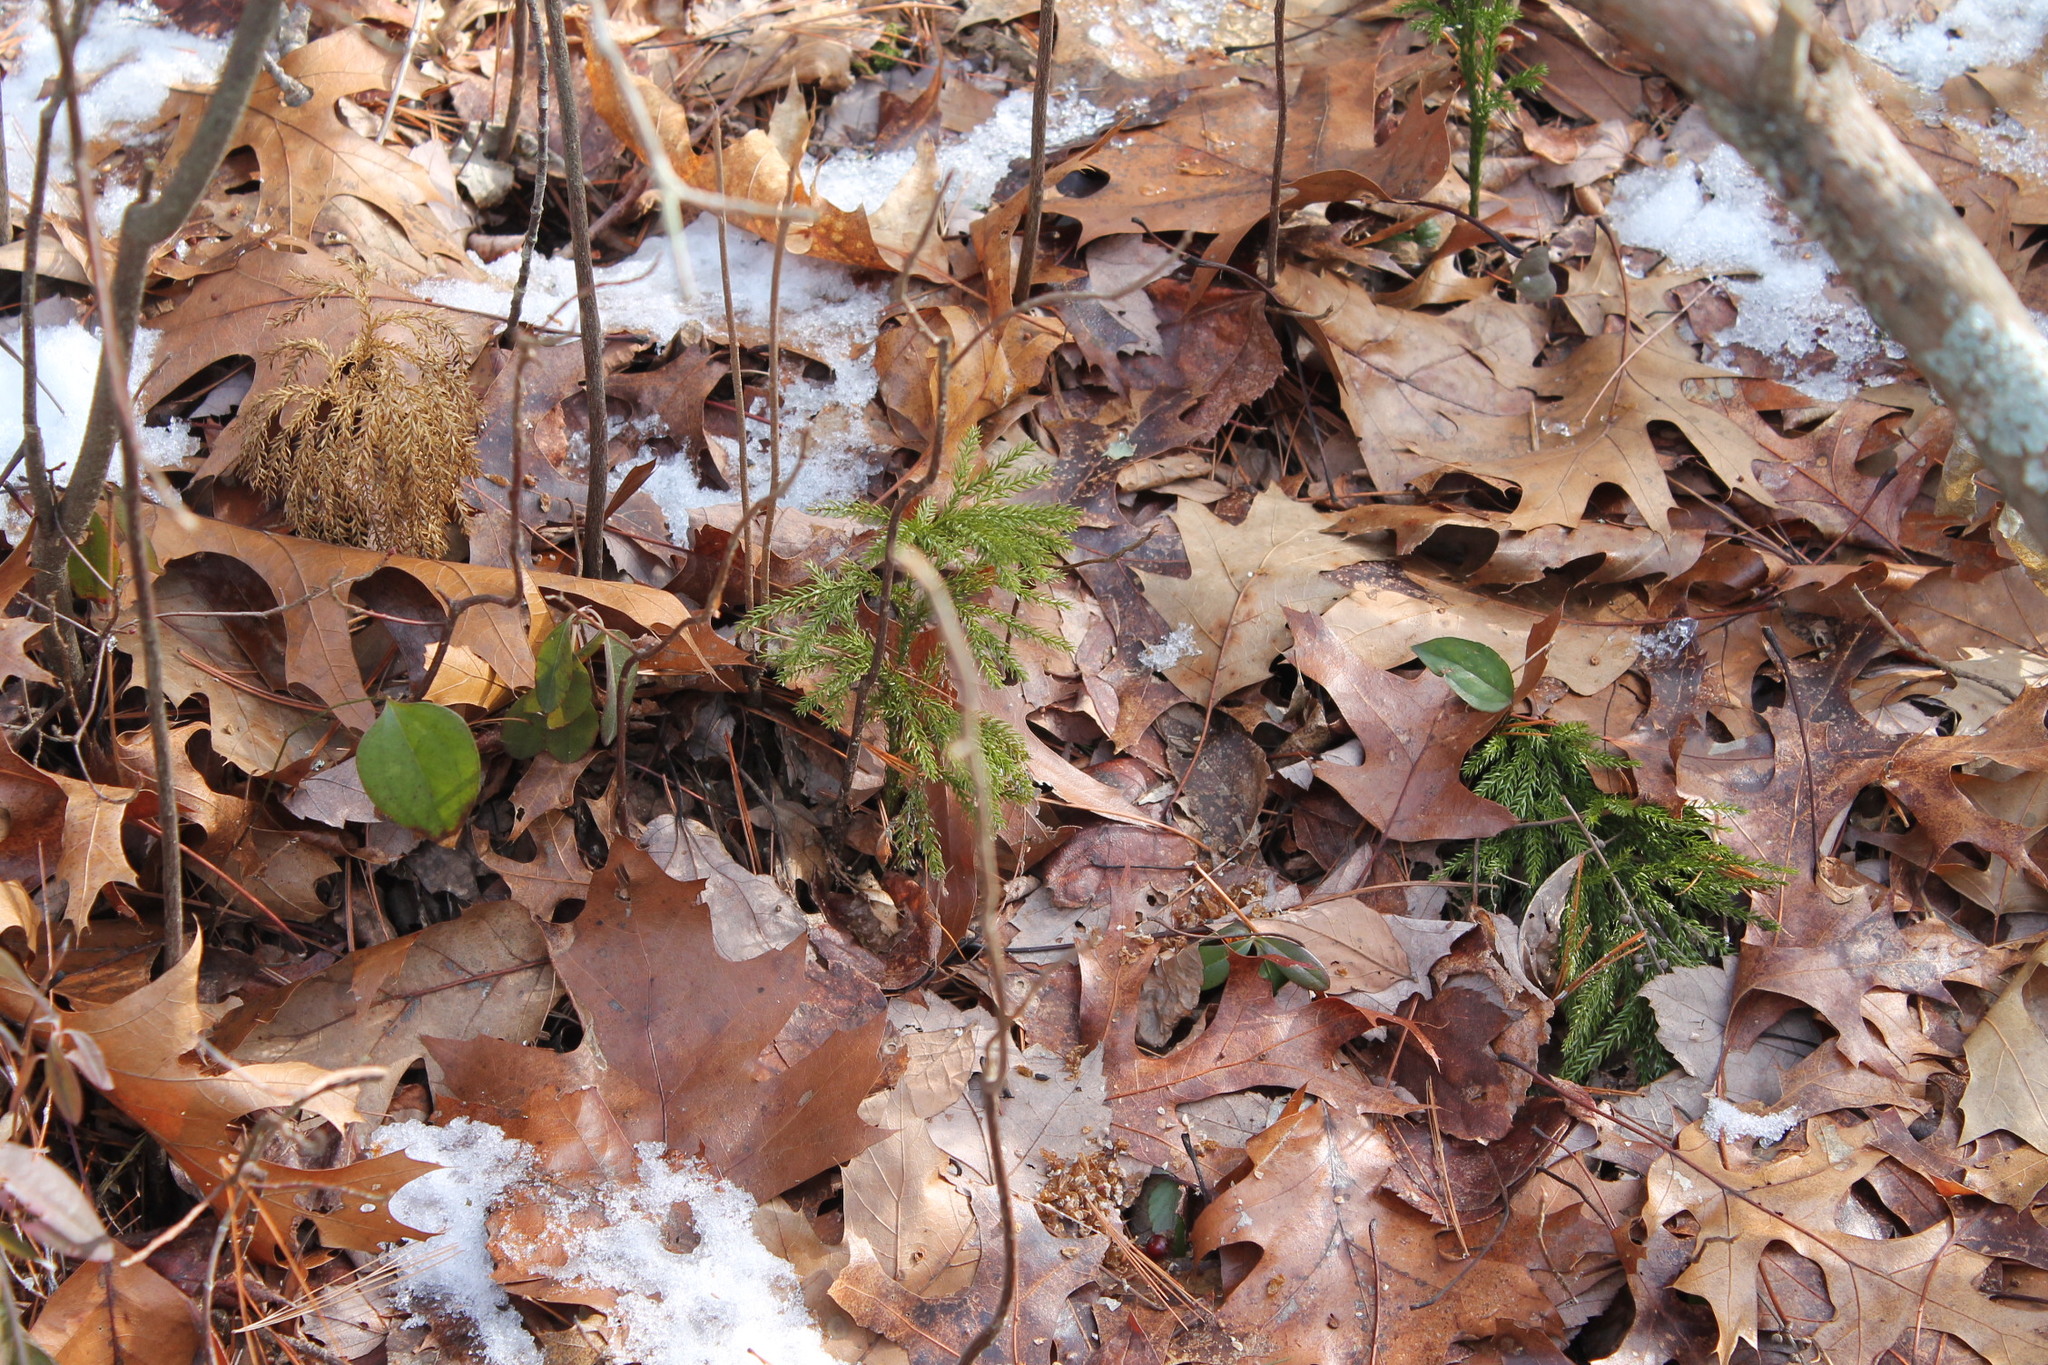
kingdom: Plantae
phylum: Tracheophyta
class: Lycopodiopsida
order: Lycopodiales
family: Lycopodiaceae
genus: Dendrolycopodium
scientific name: Dendrolycopodium obscurum
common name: Common ground-pine
